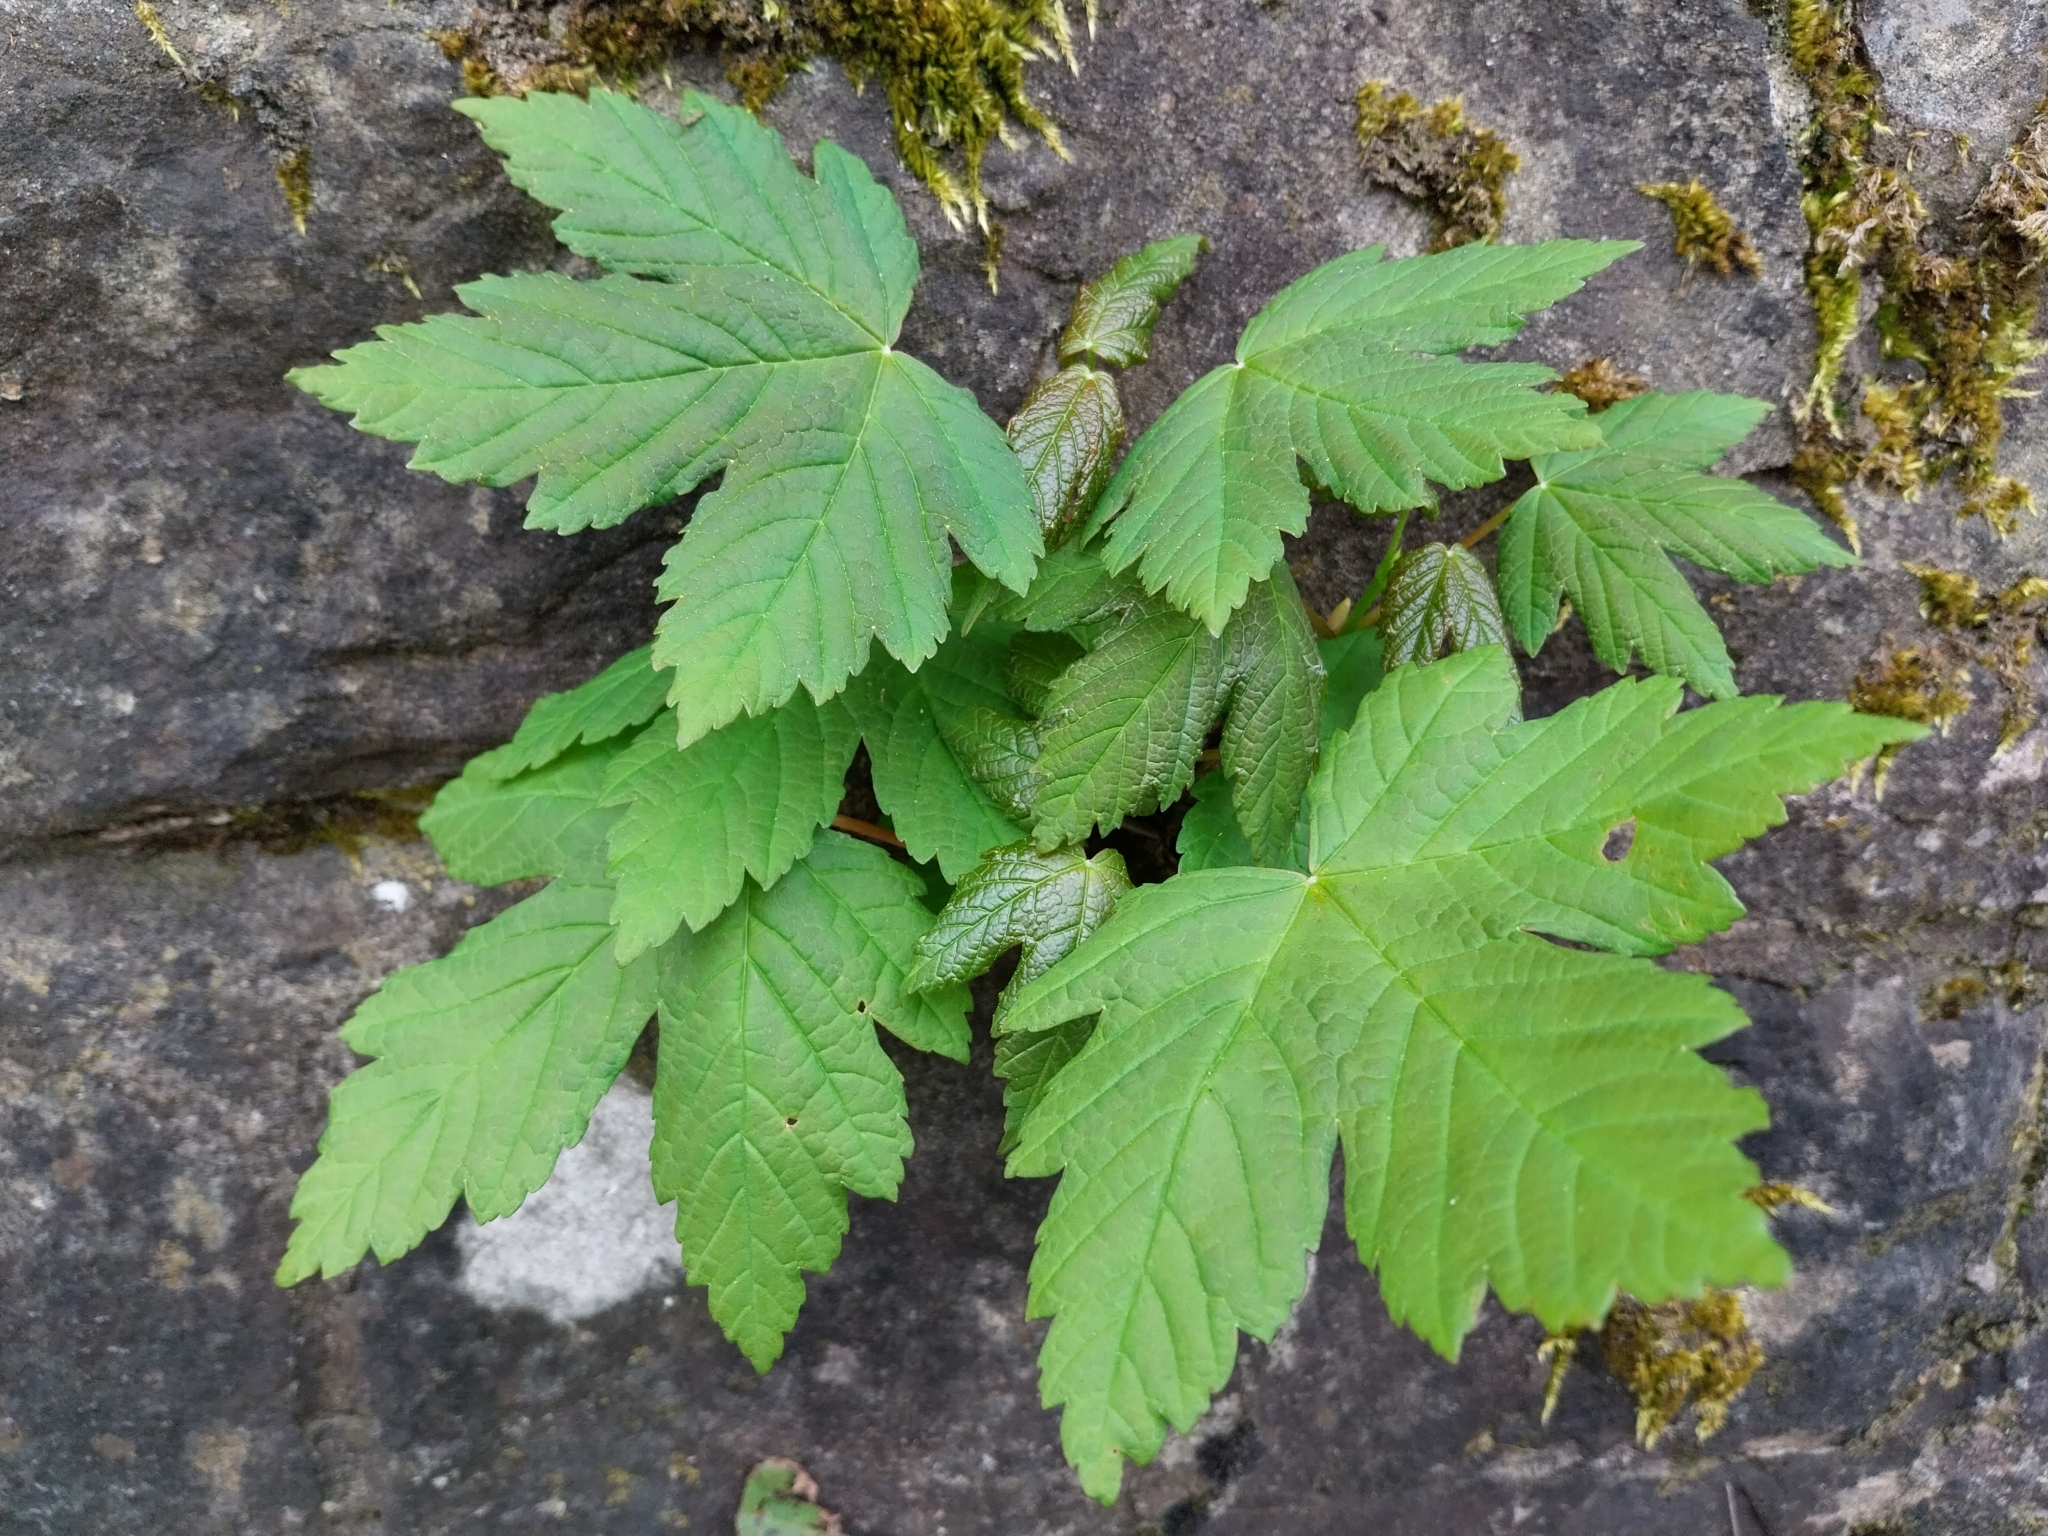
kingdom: Plantae
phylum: Tracheophyta
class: Magnoliopsida
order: Sapindales
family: Sapindaceae
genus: Acer
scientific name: Acer pseudoplatanus
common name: Sycamore
